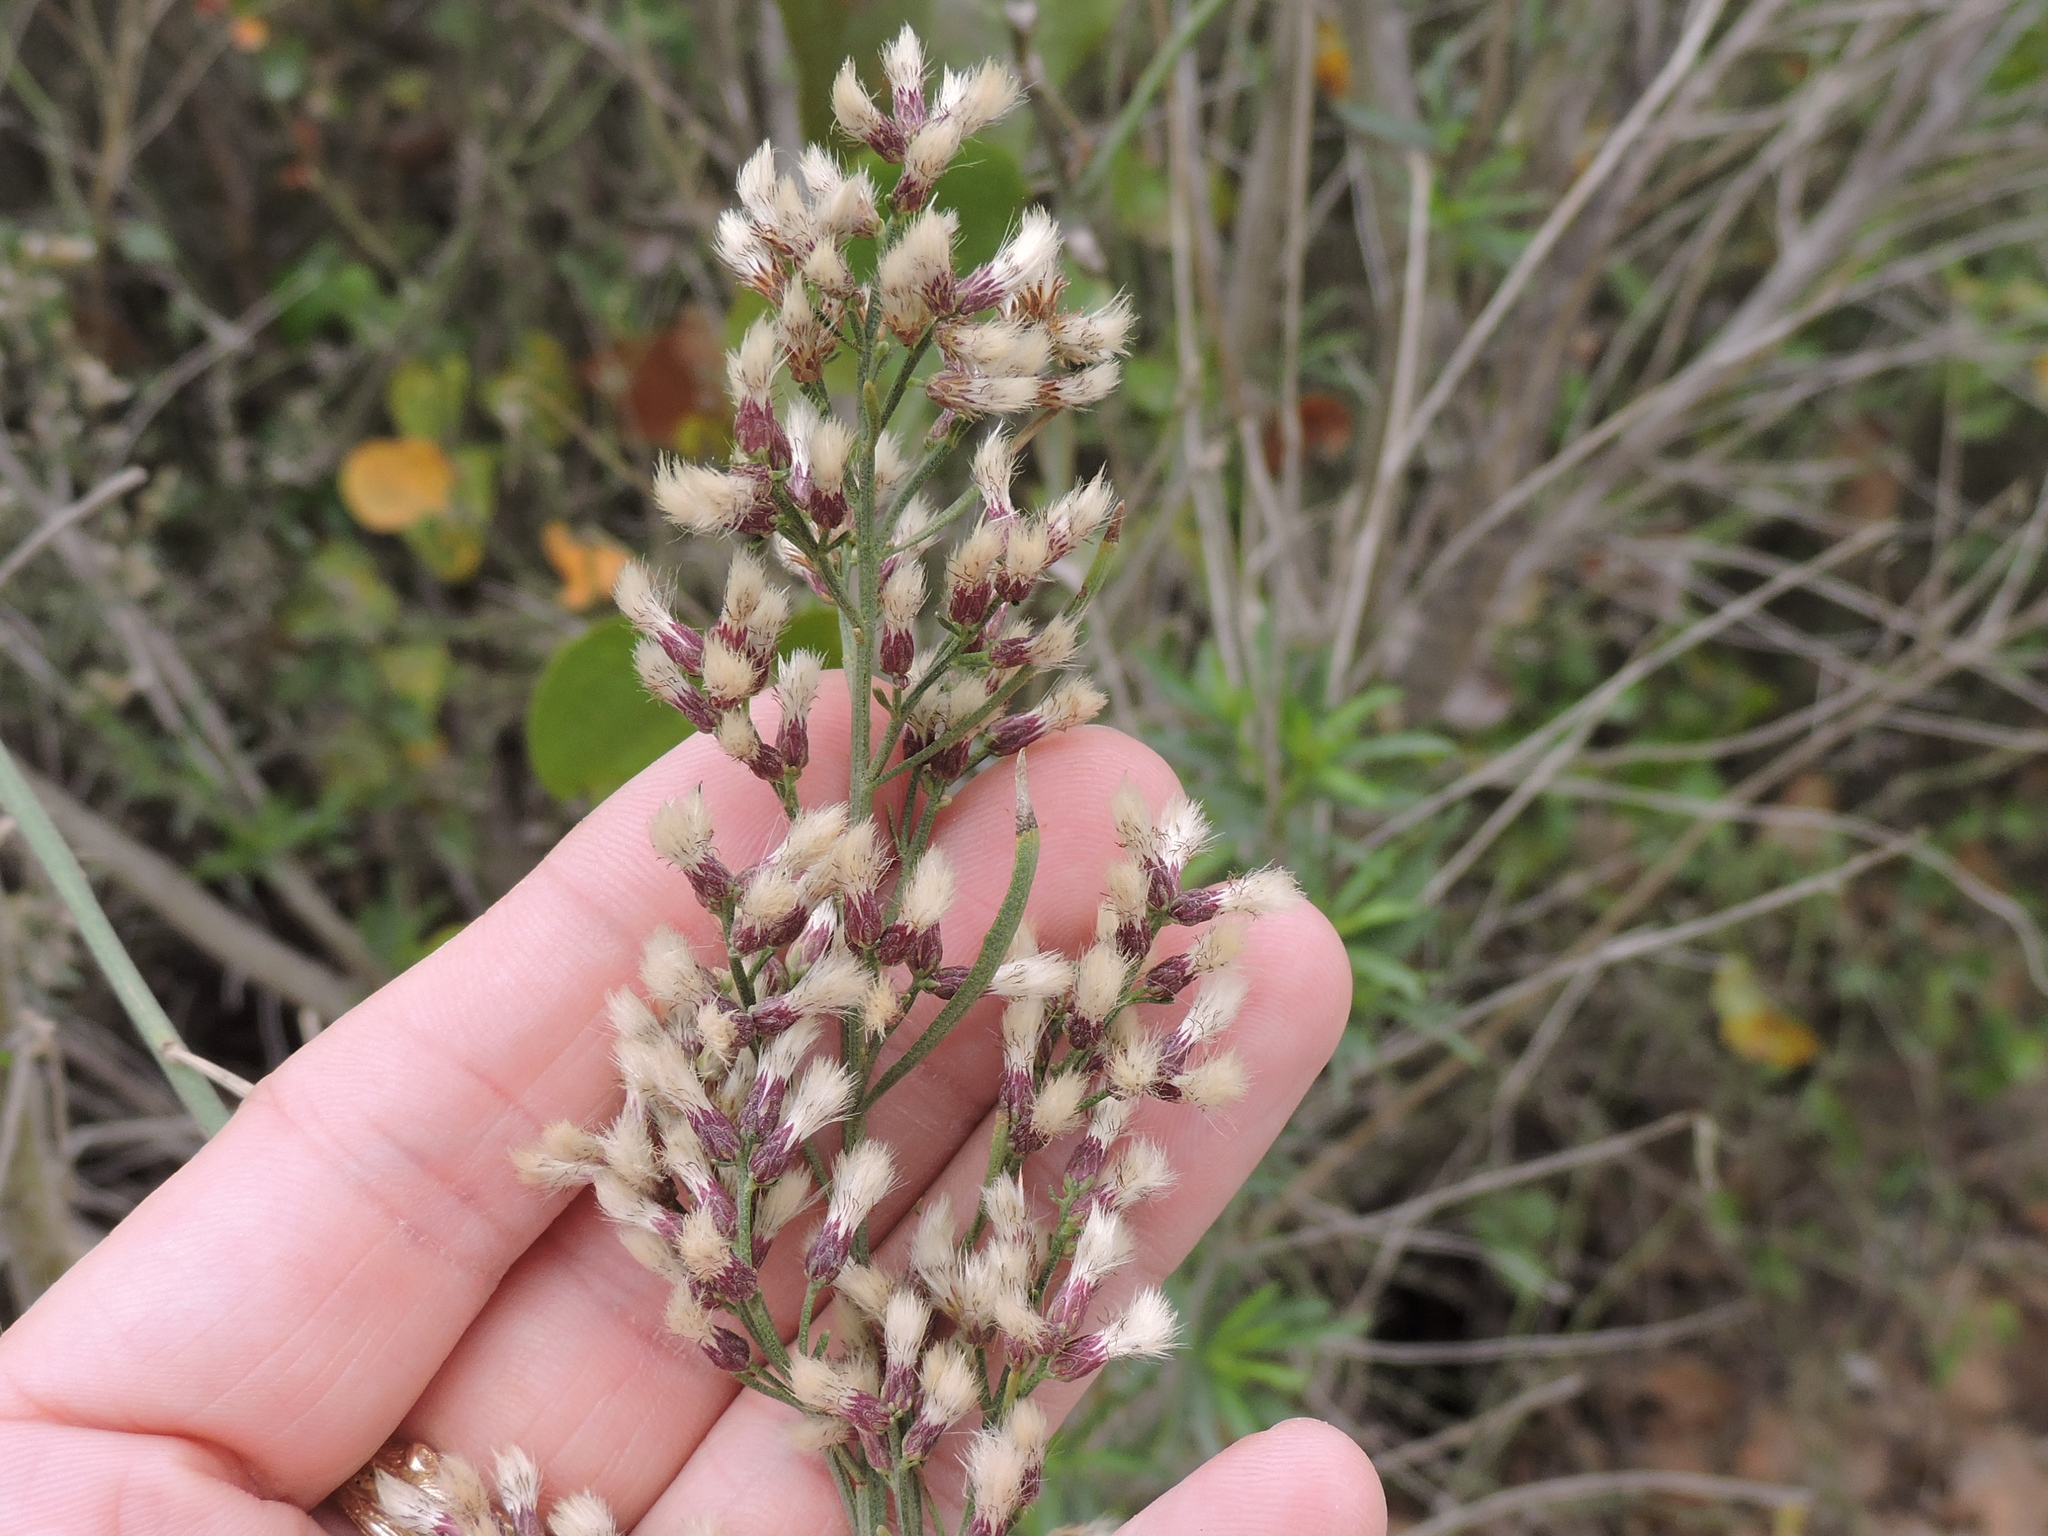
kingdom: Plantae
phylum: Tracheophyta
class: Magnoliopsida
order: Asterales
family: Asteraceae
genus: Baccharis
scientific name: Baccharis neglecta
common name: Roosevelt-weed
